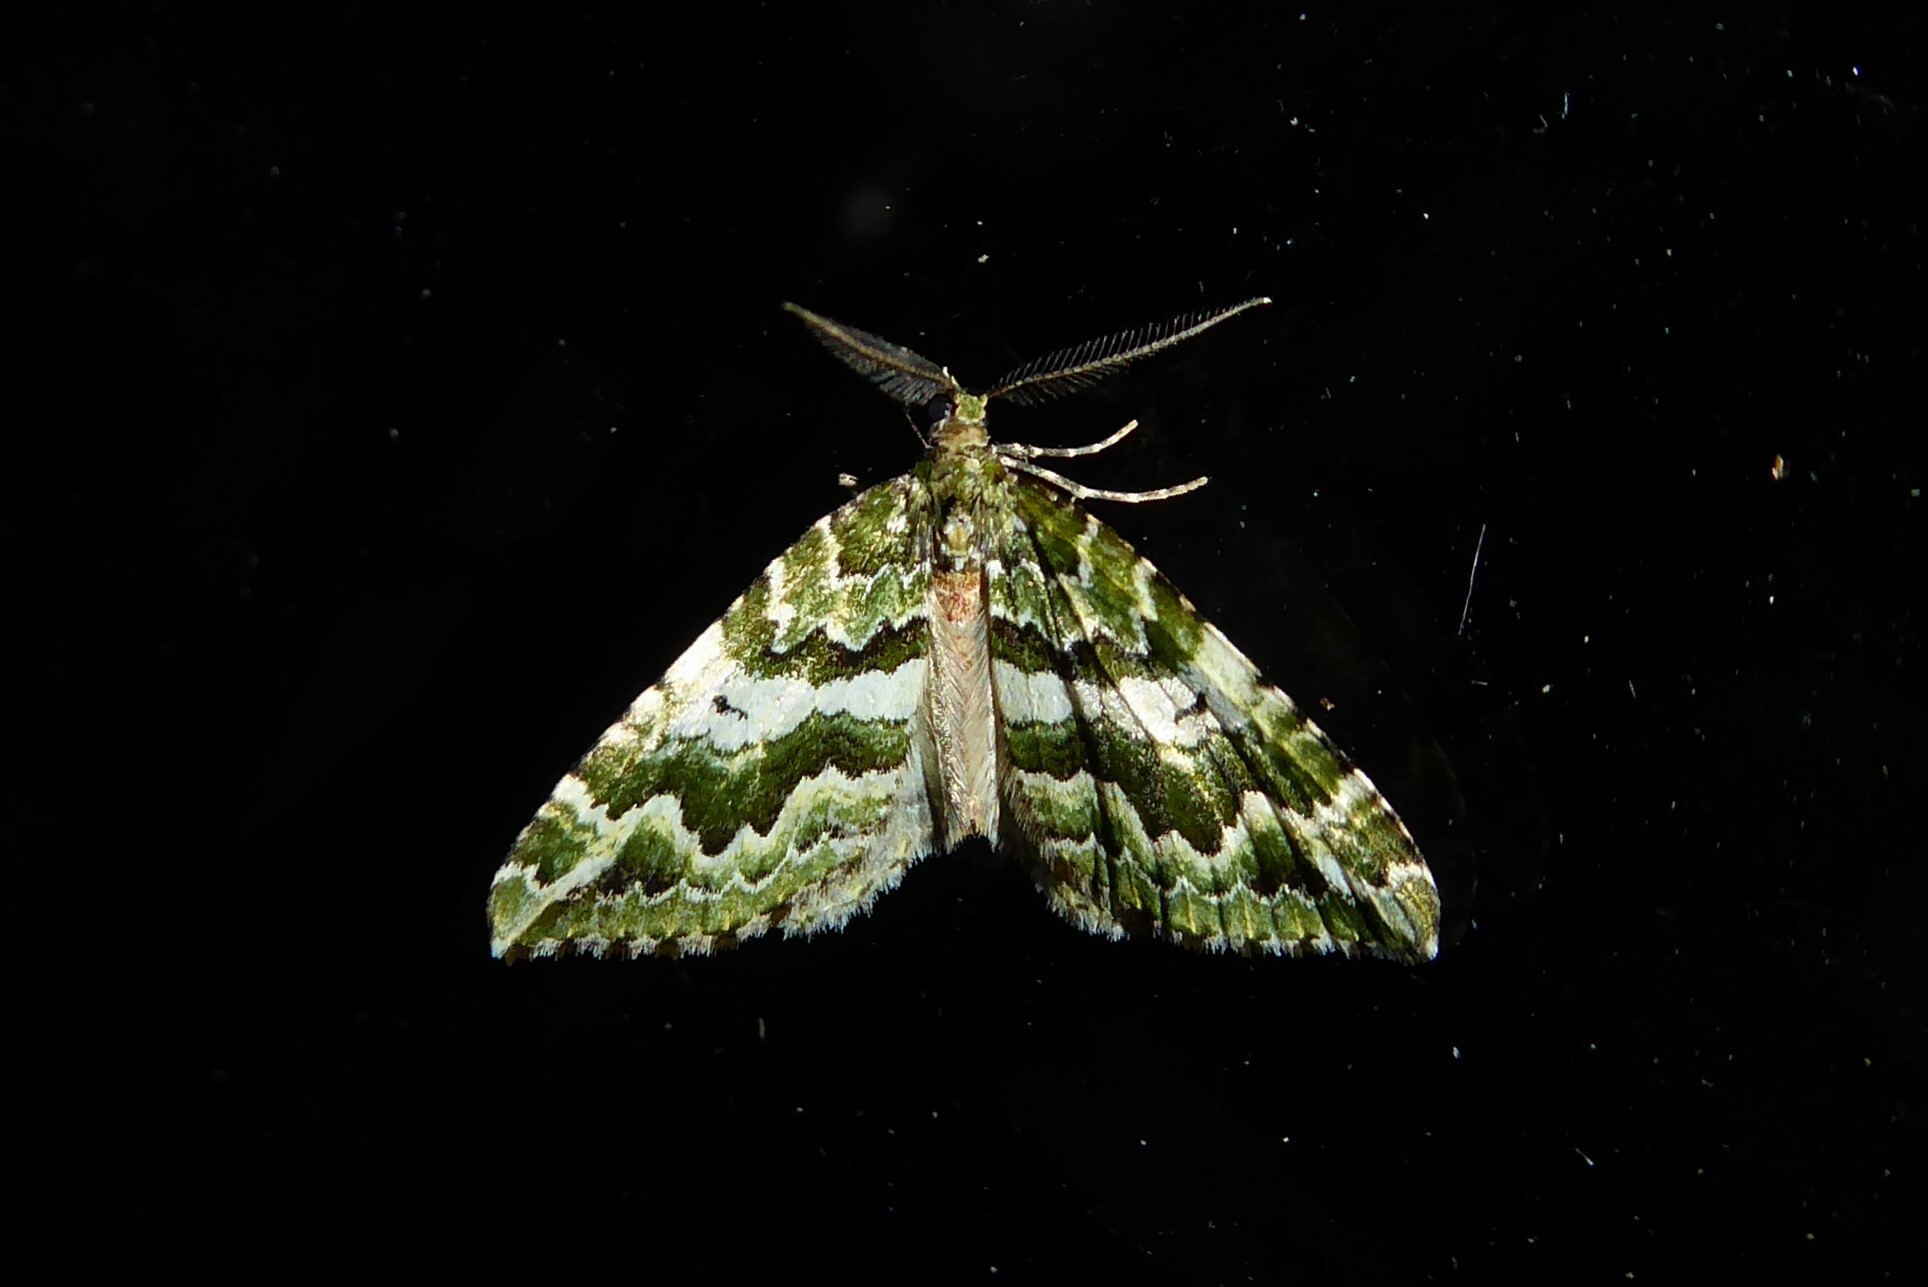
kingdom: Animalia
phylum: Arthropoda
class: Insecta
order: Lepidoptera
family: Geometridae
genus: Asaphodes
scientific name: Asaphodes beata
